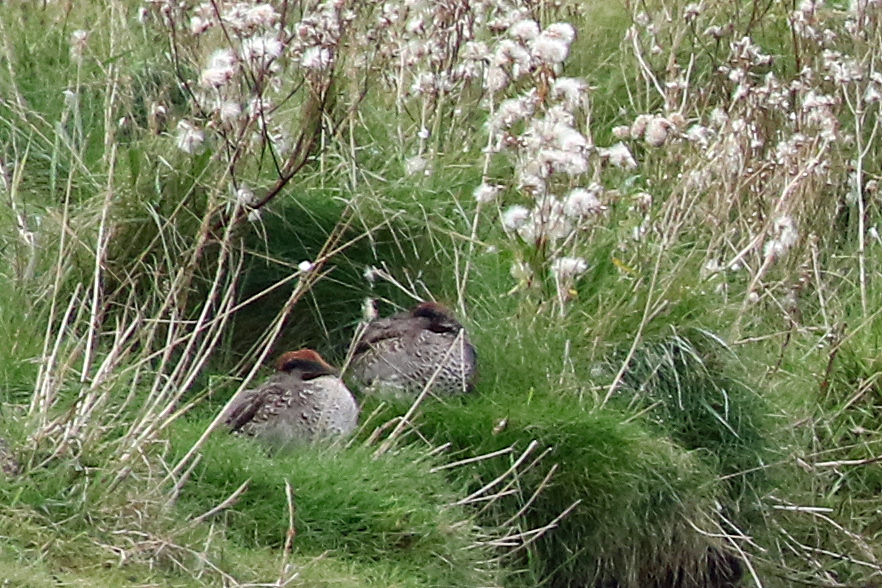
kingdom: Animalia
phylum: Chordata
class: Aves
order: Anseriformes
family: Anatidae
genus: Anas
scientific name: Anas crecca
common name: Eurasian teal
